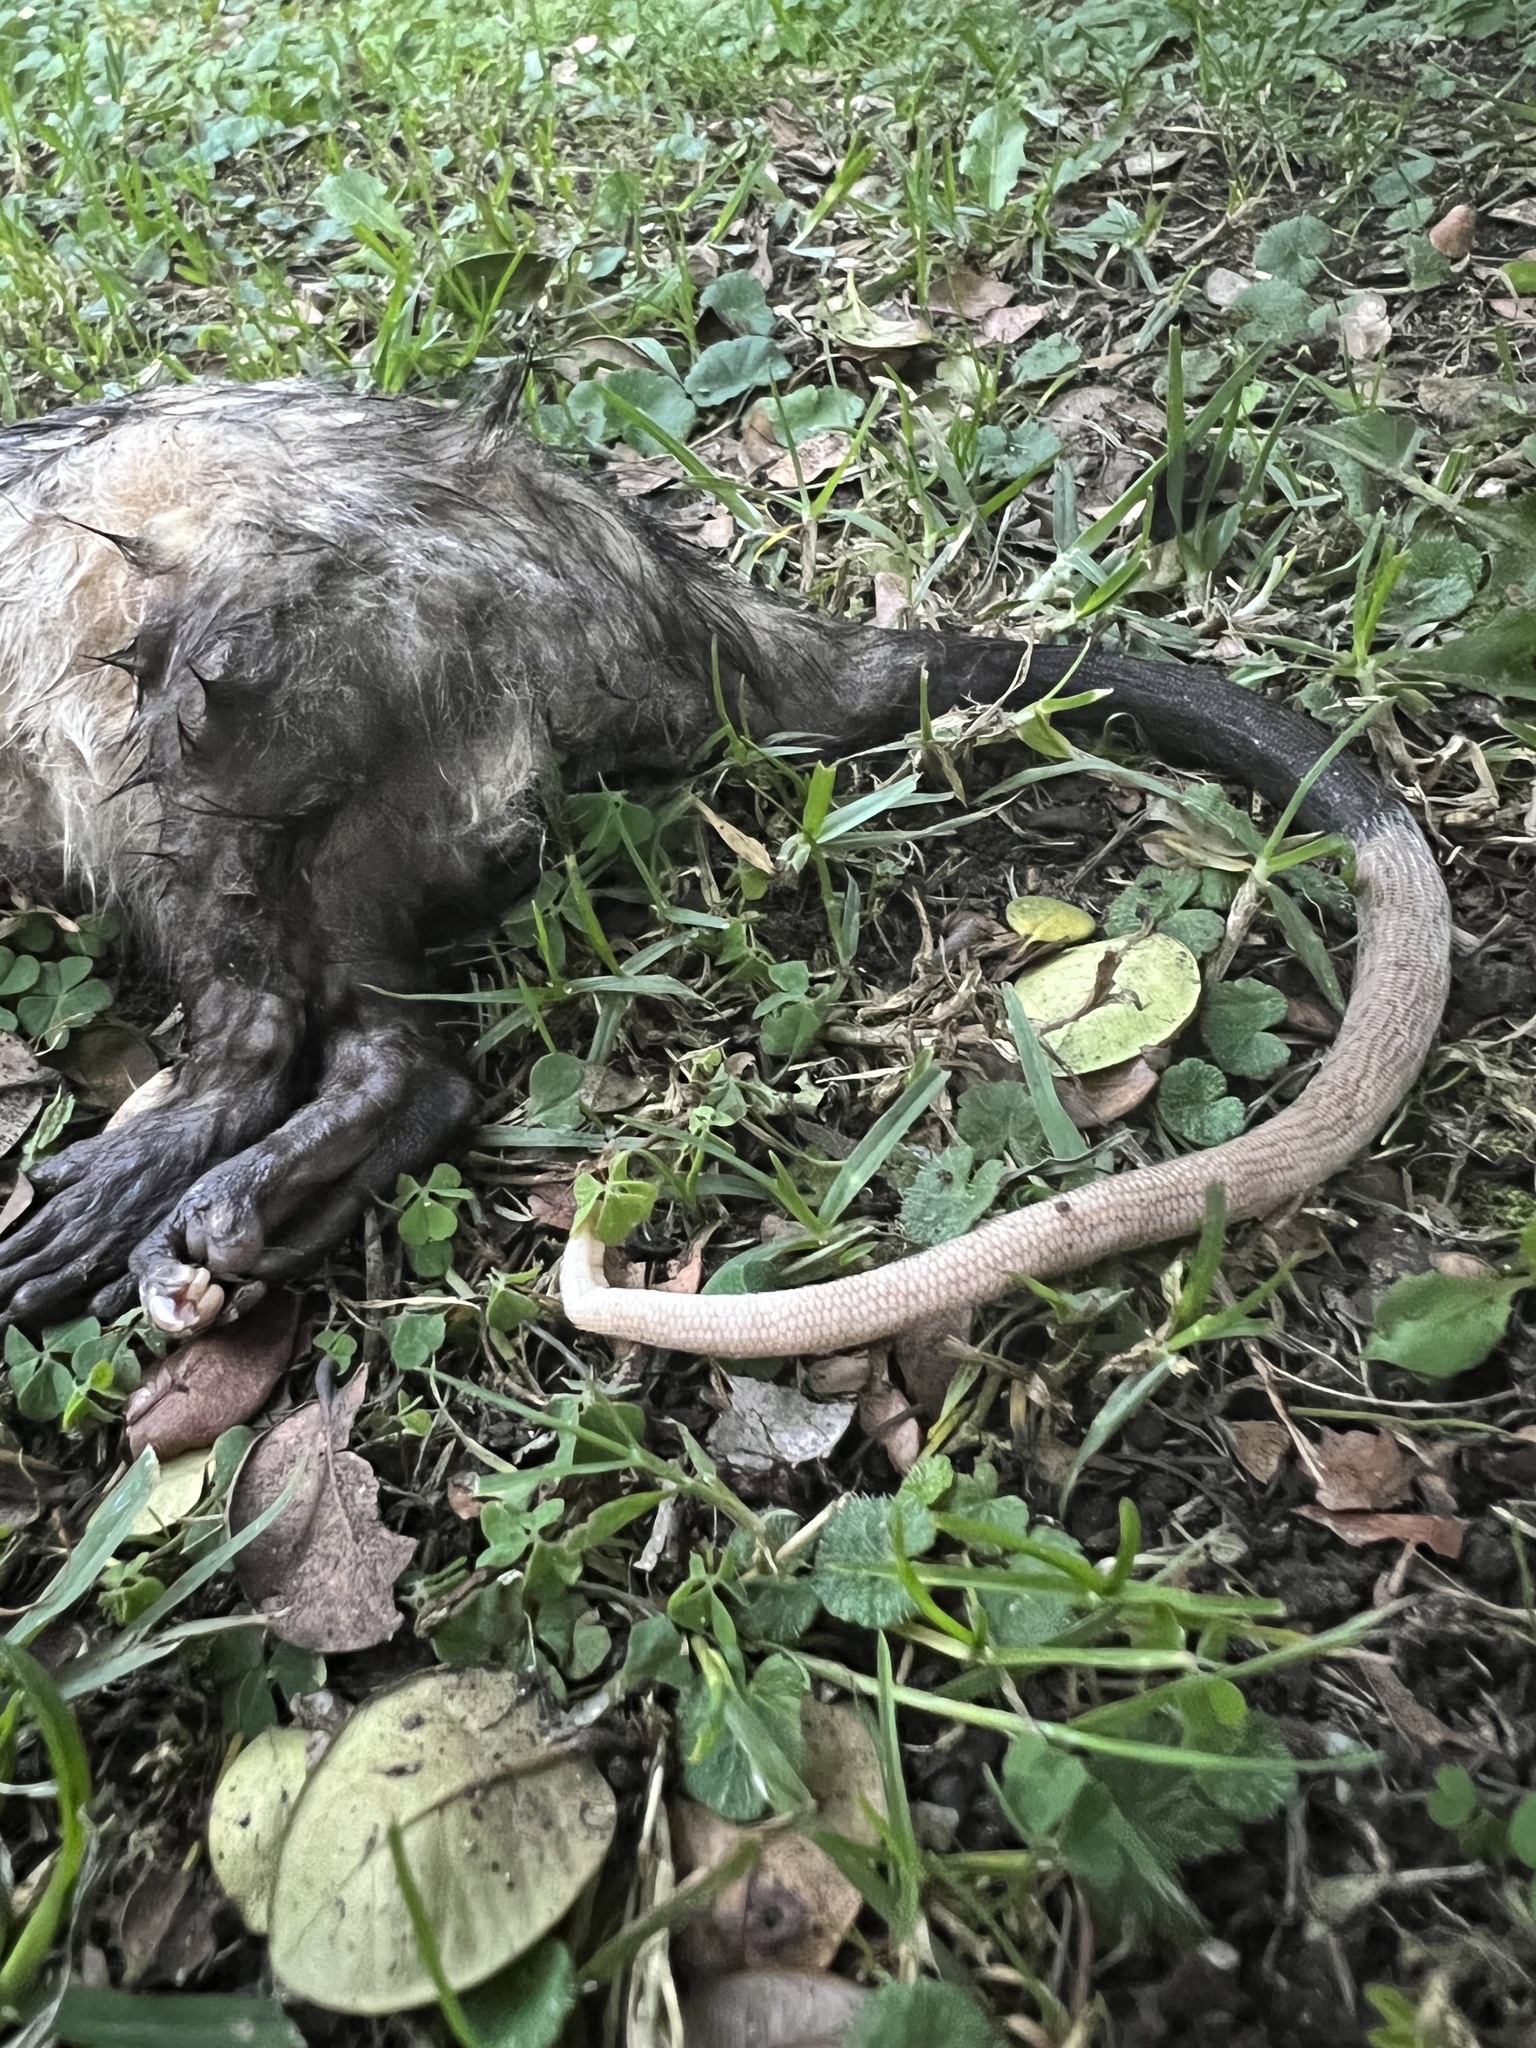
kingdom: Animalia
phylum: Chordata
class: Mammalia
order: Didelphimorphia
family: Didelphidae
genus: Didelphis
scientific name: Didelphis marsupialis
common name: Common opossum
